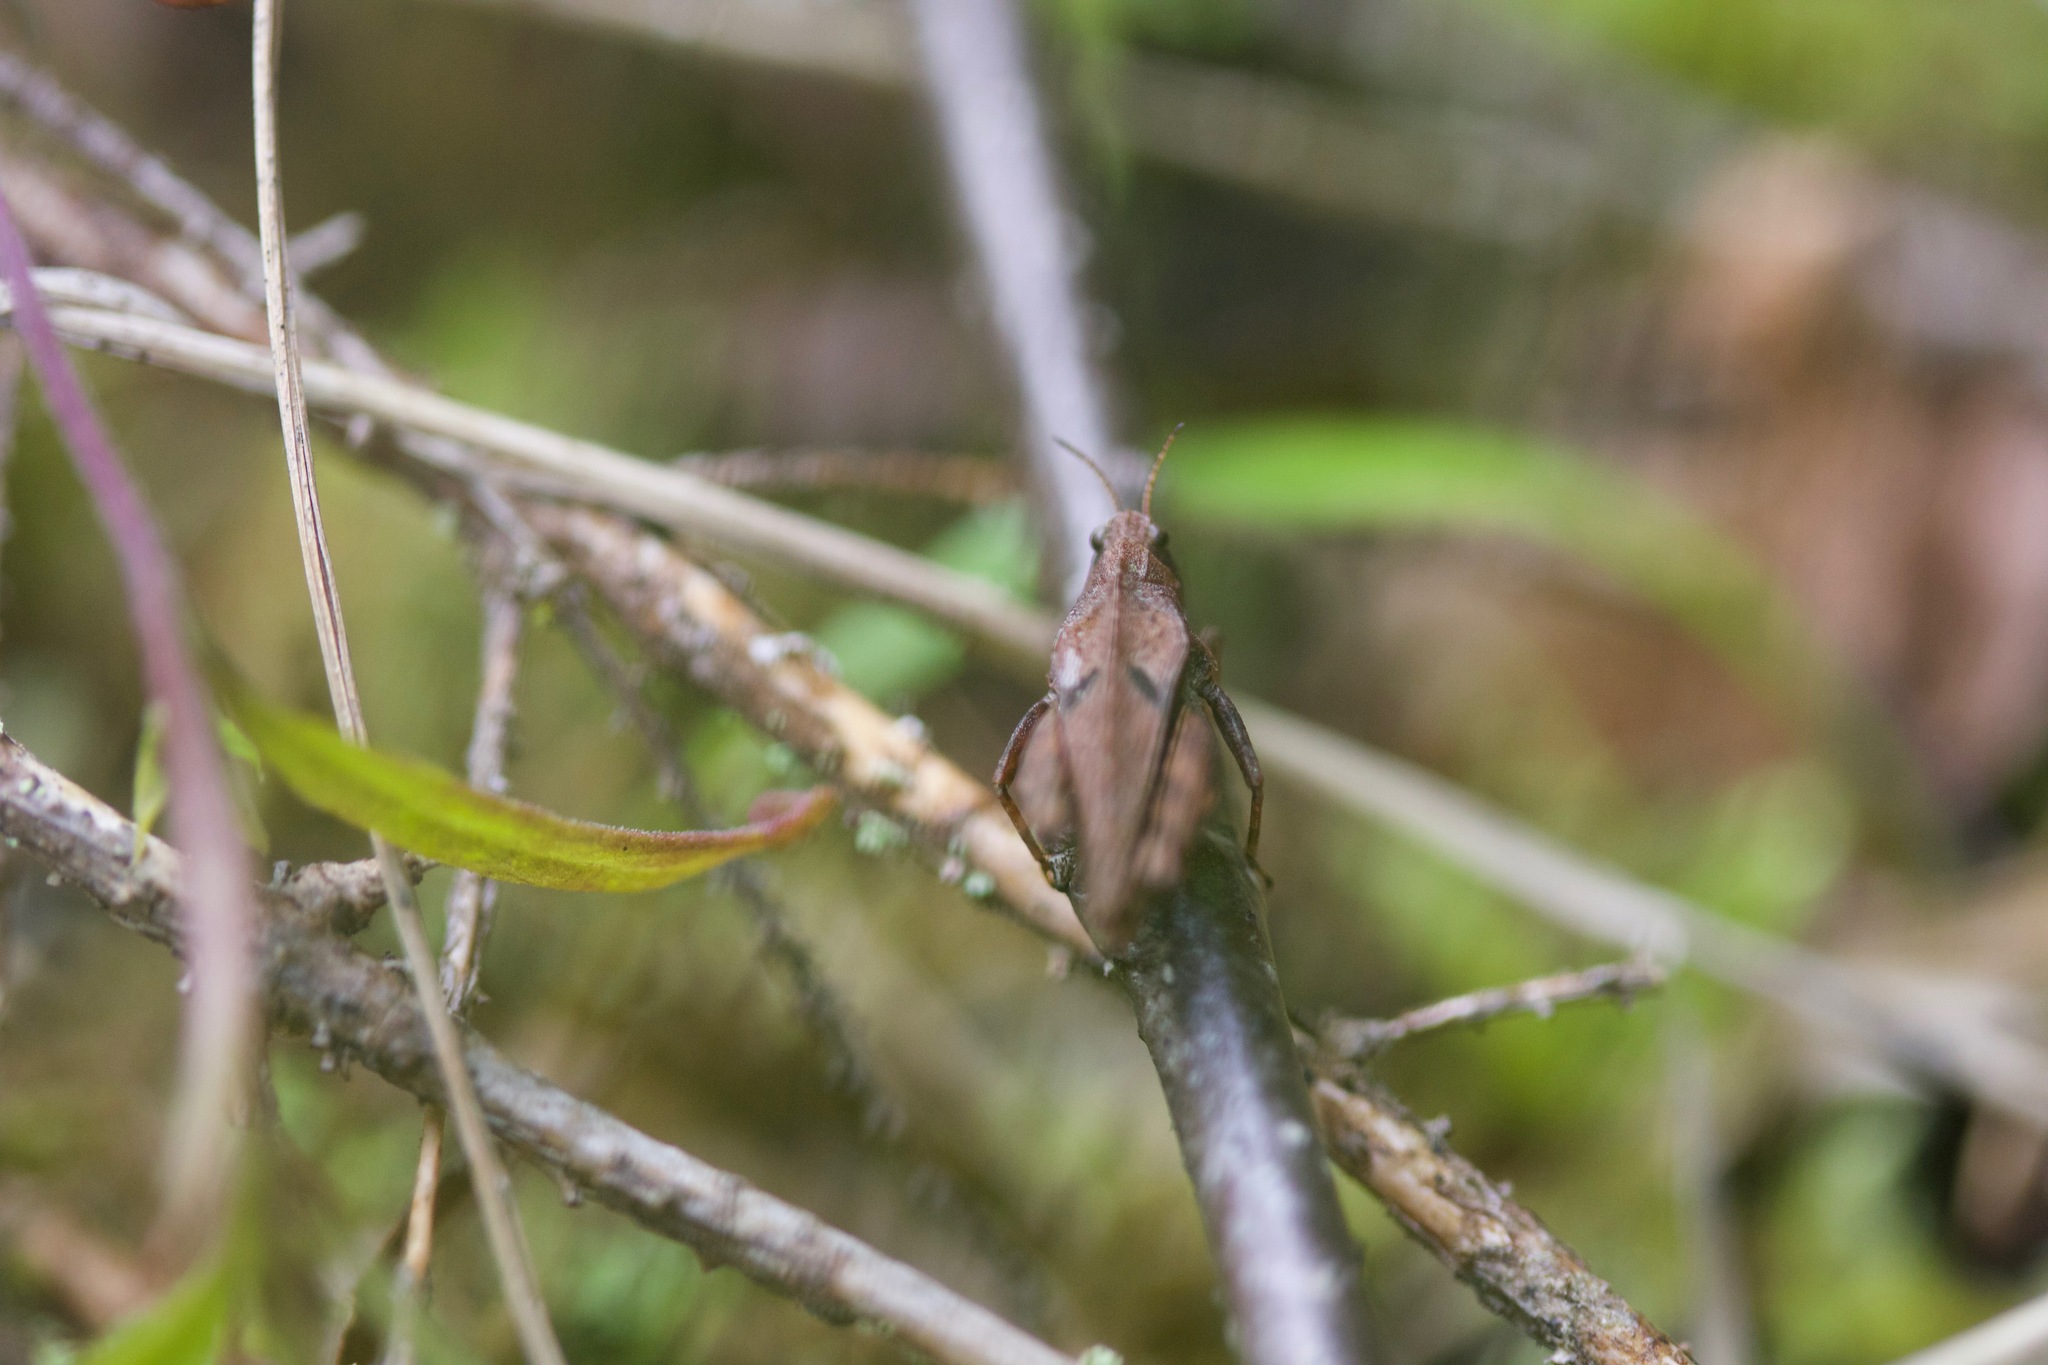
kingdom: Animalia
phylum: Arthropoda
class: Insecta
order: Orthoptera
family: Tetrigidae
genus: Tetrix
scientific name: Tetrix undulata
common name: Common groundhopper
